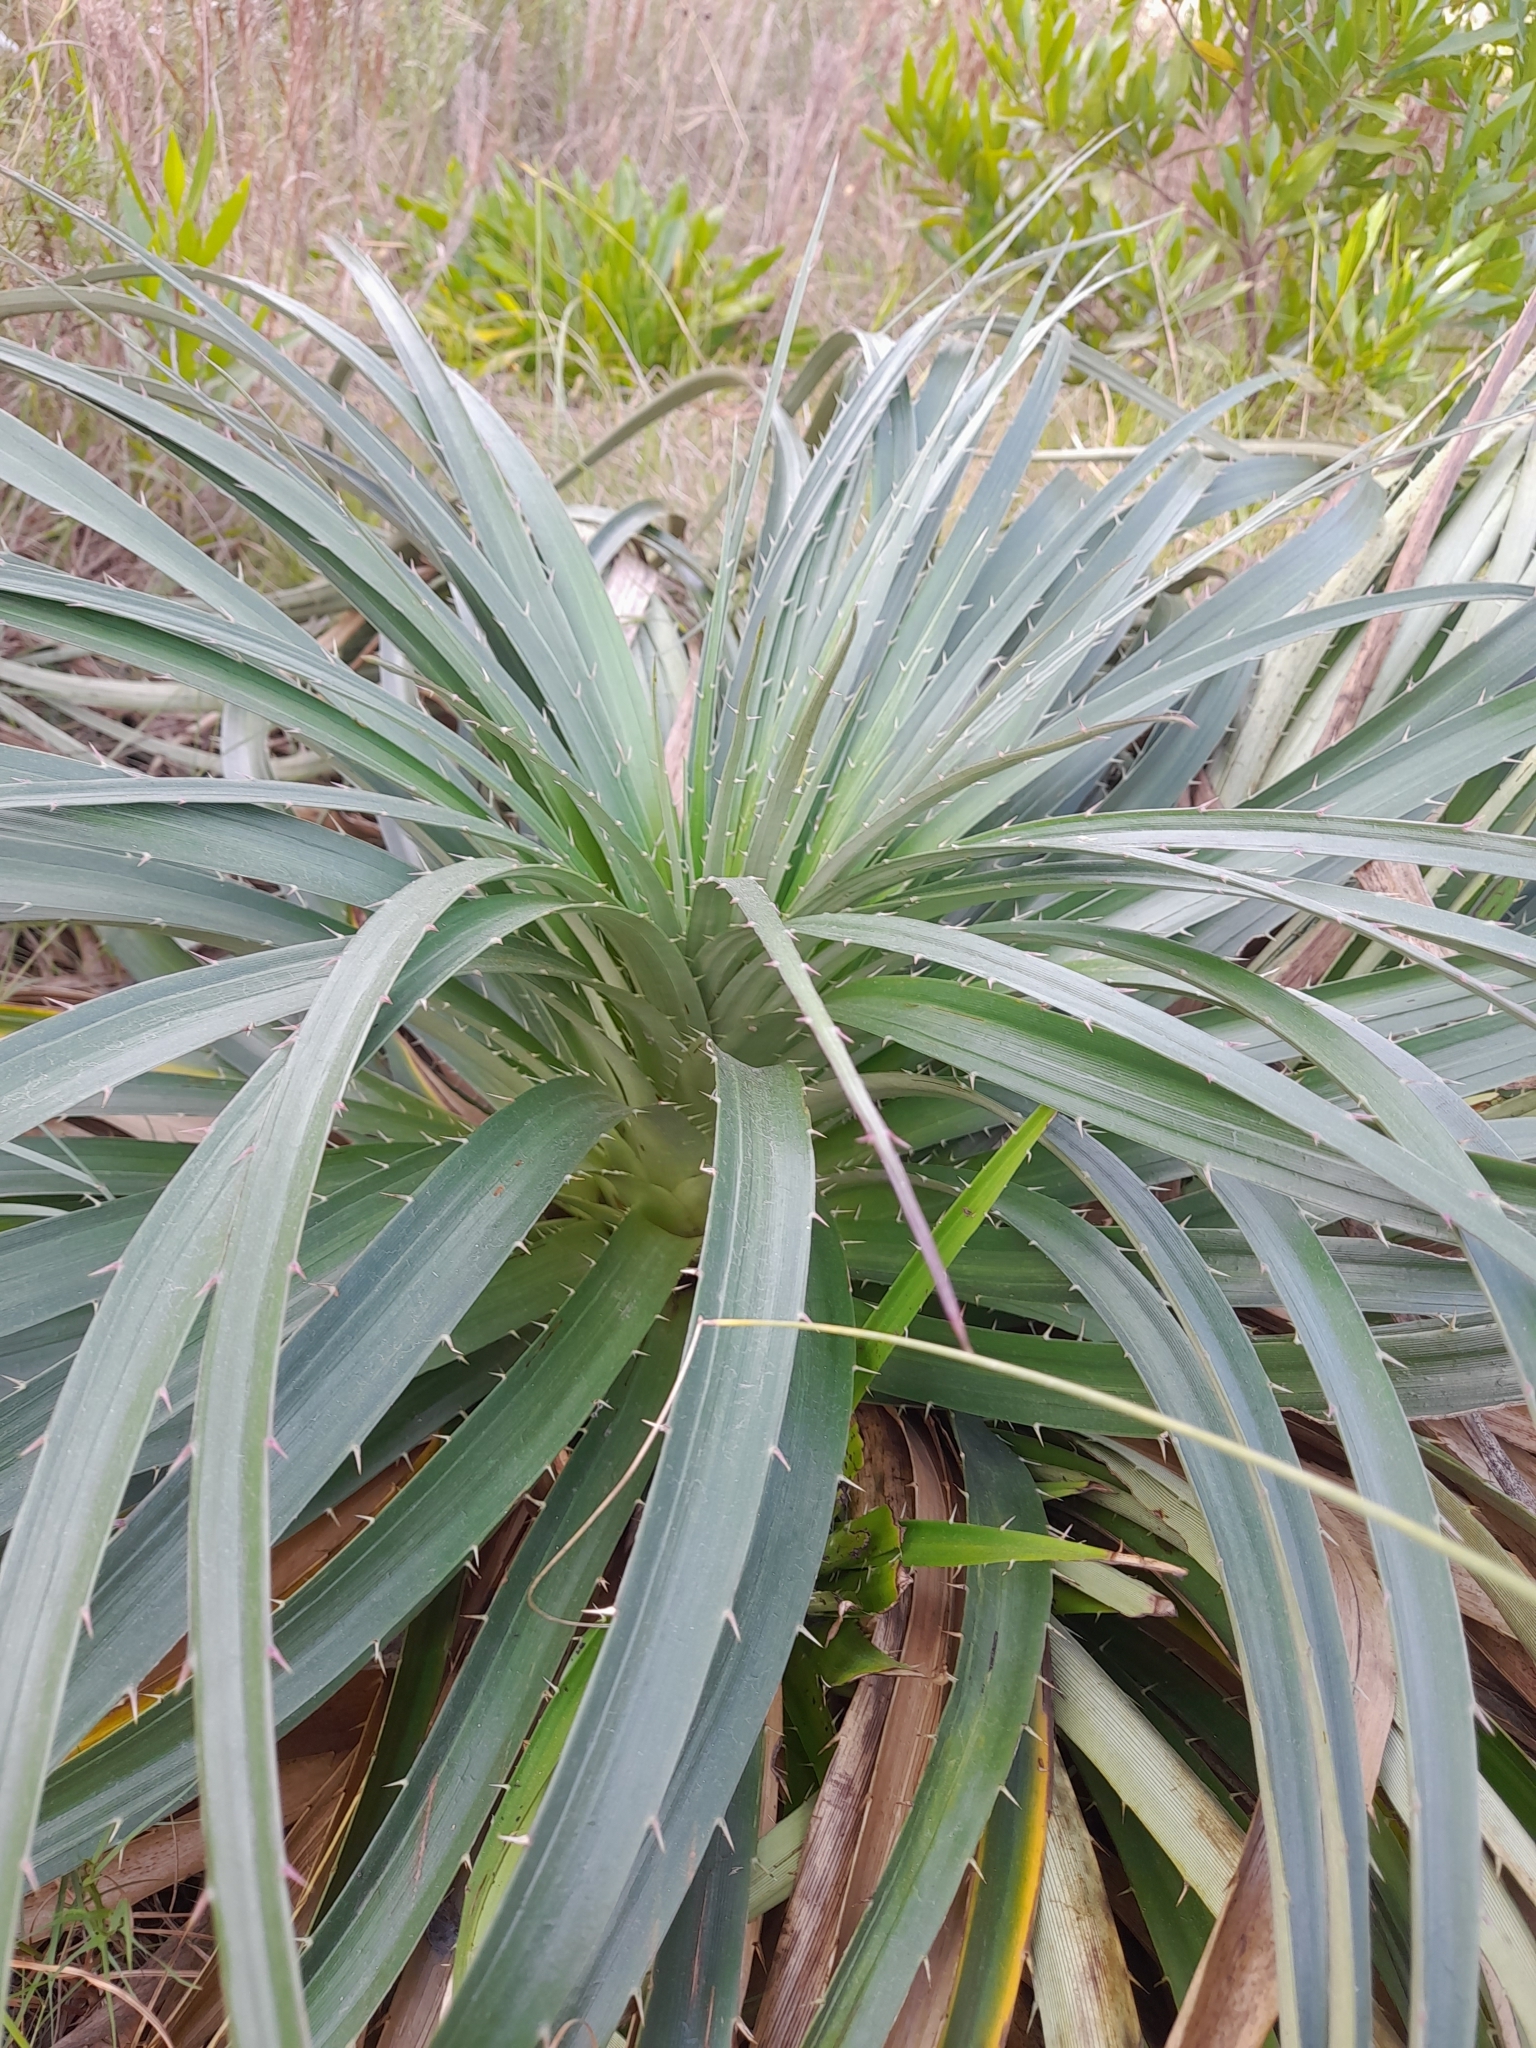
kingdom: Plantae
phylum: Tracheophyta
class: Magnoliopsida
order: Apiales
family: Apiaceae
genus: Eryngium
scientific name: Eryngium horridum
